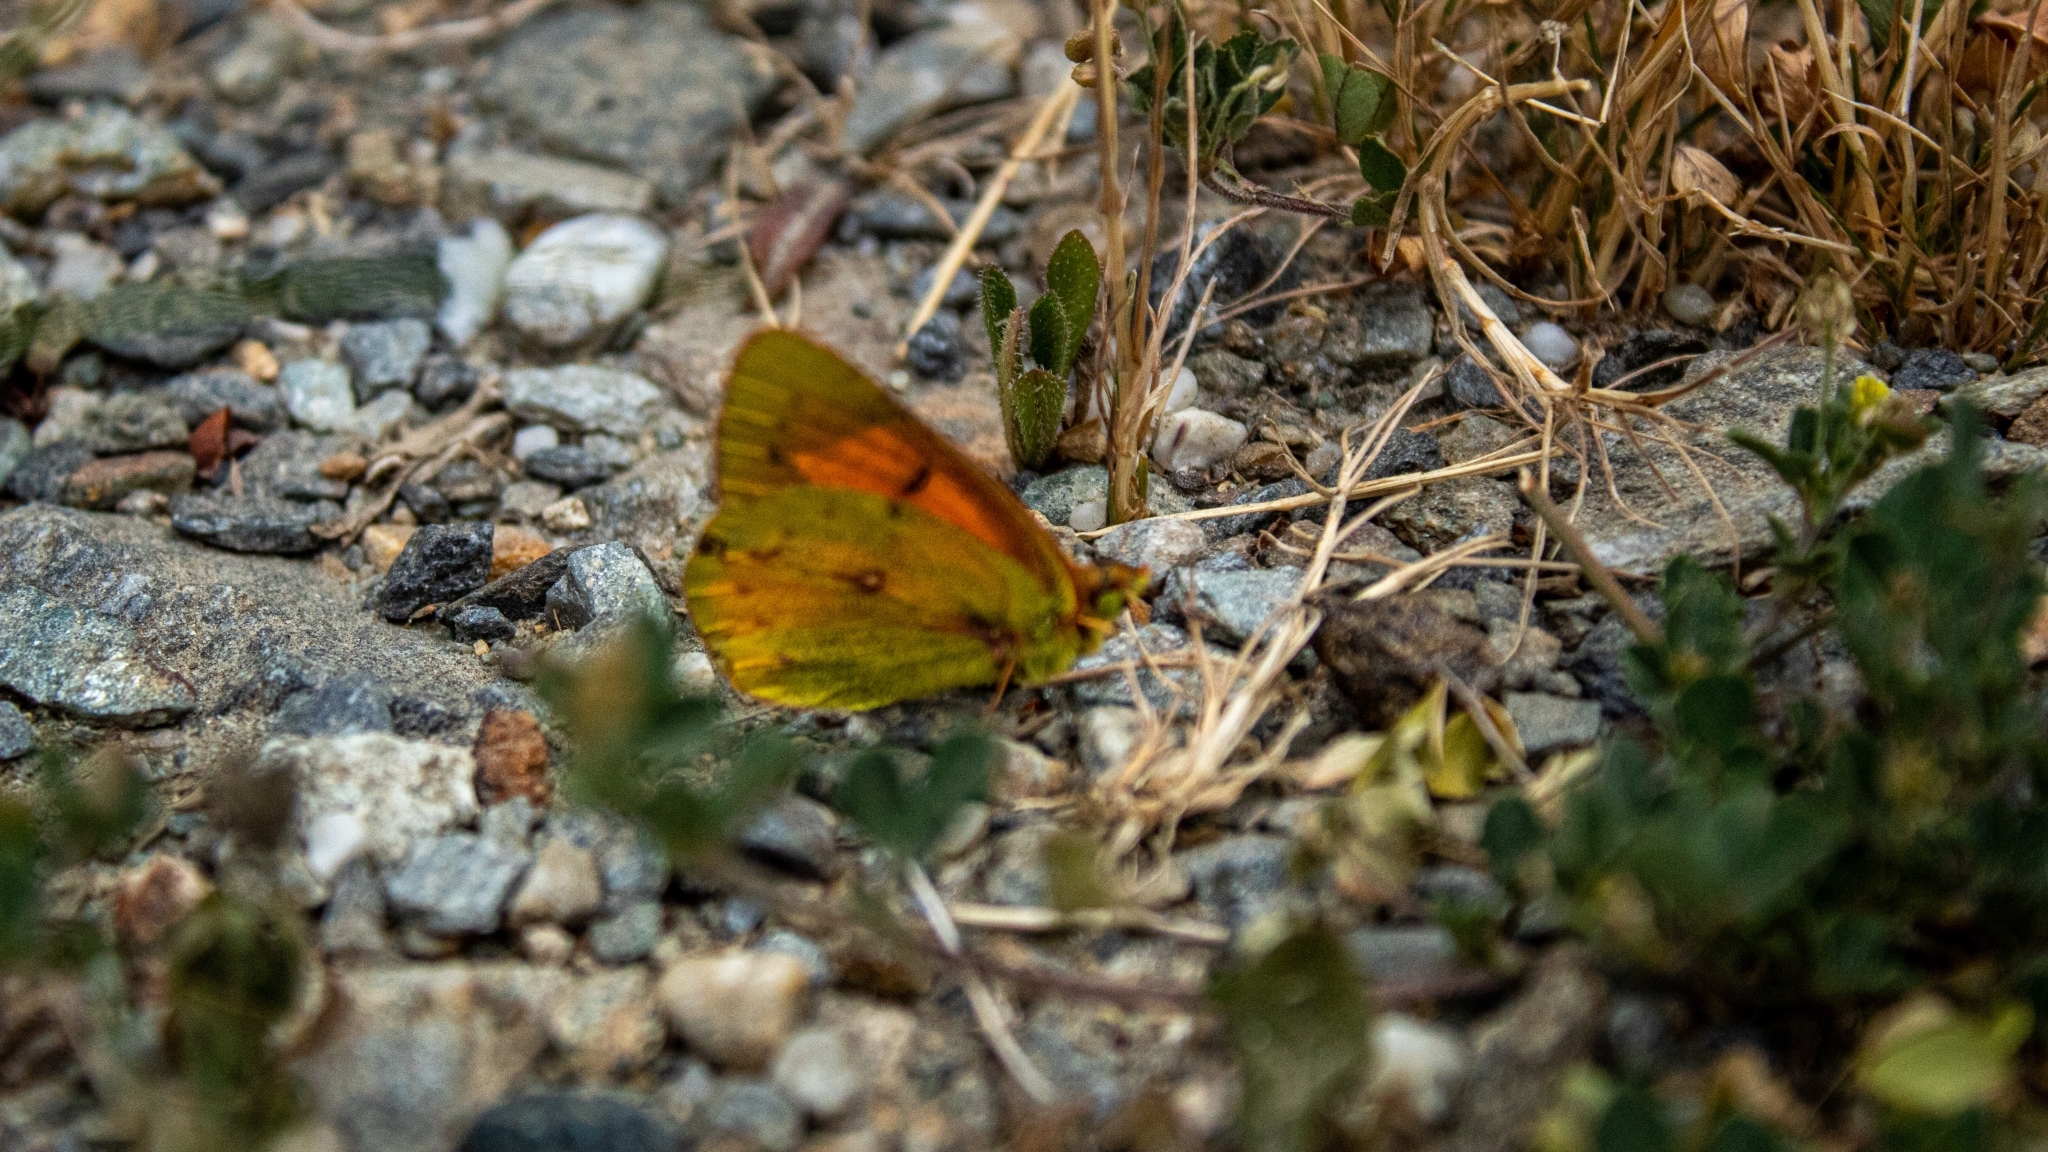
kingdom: Animalia
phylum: Arthropoda
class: Insecta
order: Lepidoptera
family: Pieridae
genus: Colias
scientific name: Colias vauthierii
